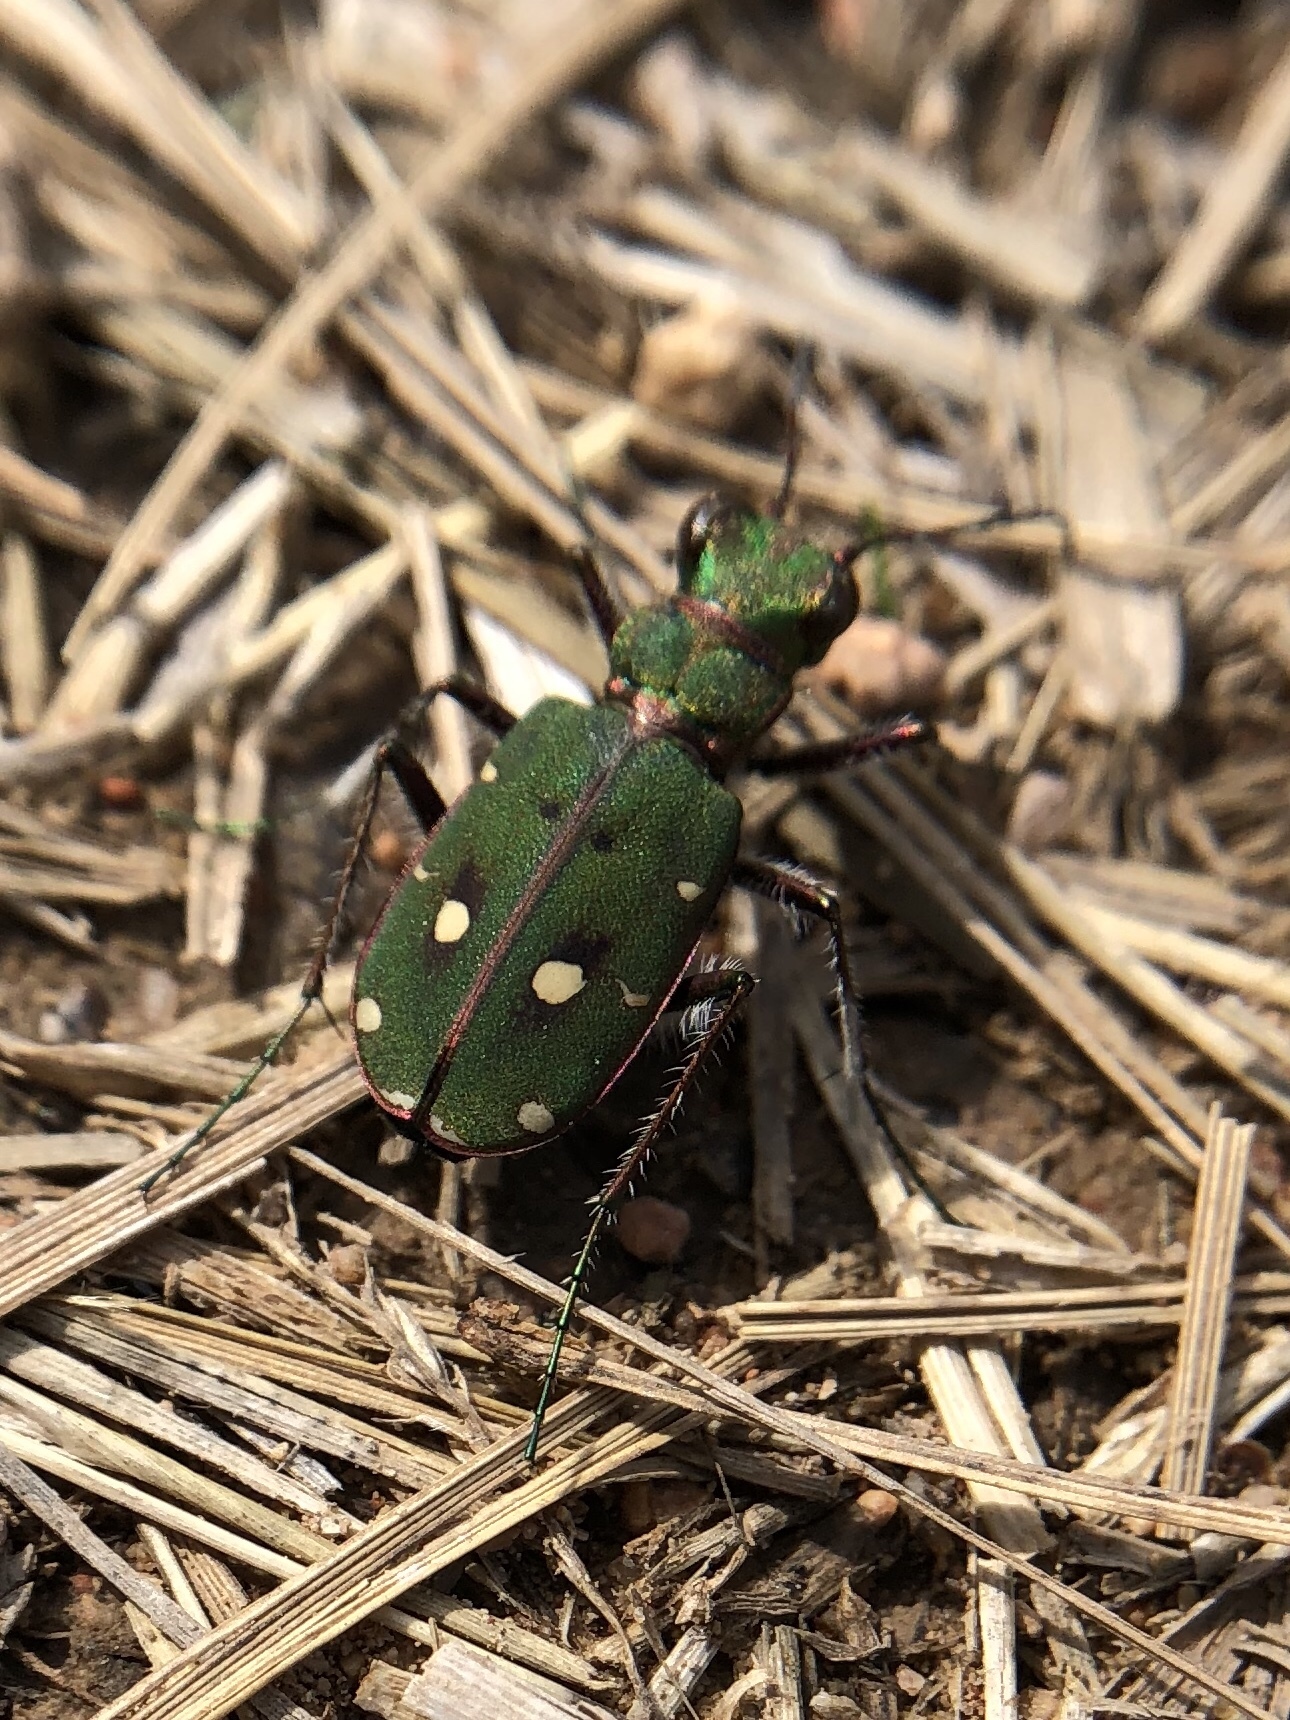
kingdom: Animalia
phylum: Arthropoda
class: Insecta
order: Coleoptera
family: Carabidae
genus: Cicindela
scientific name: Cicindela campestris
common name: Common tiger beetle
